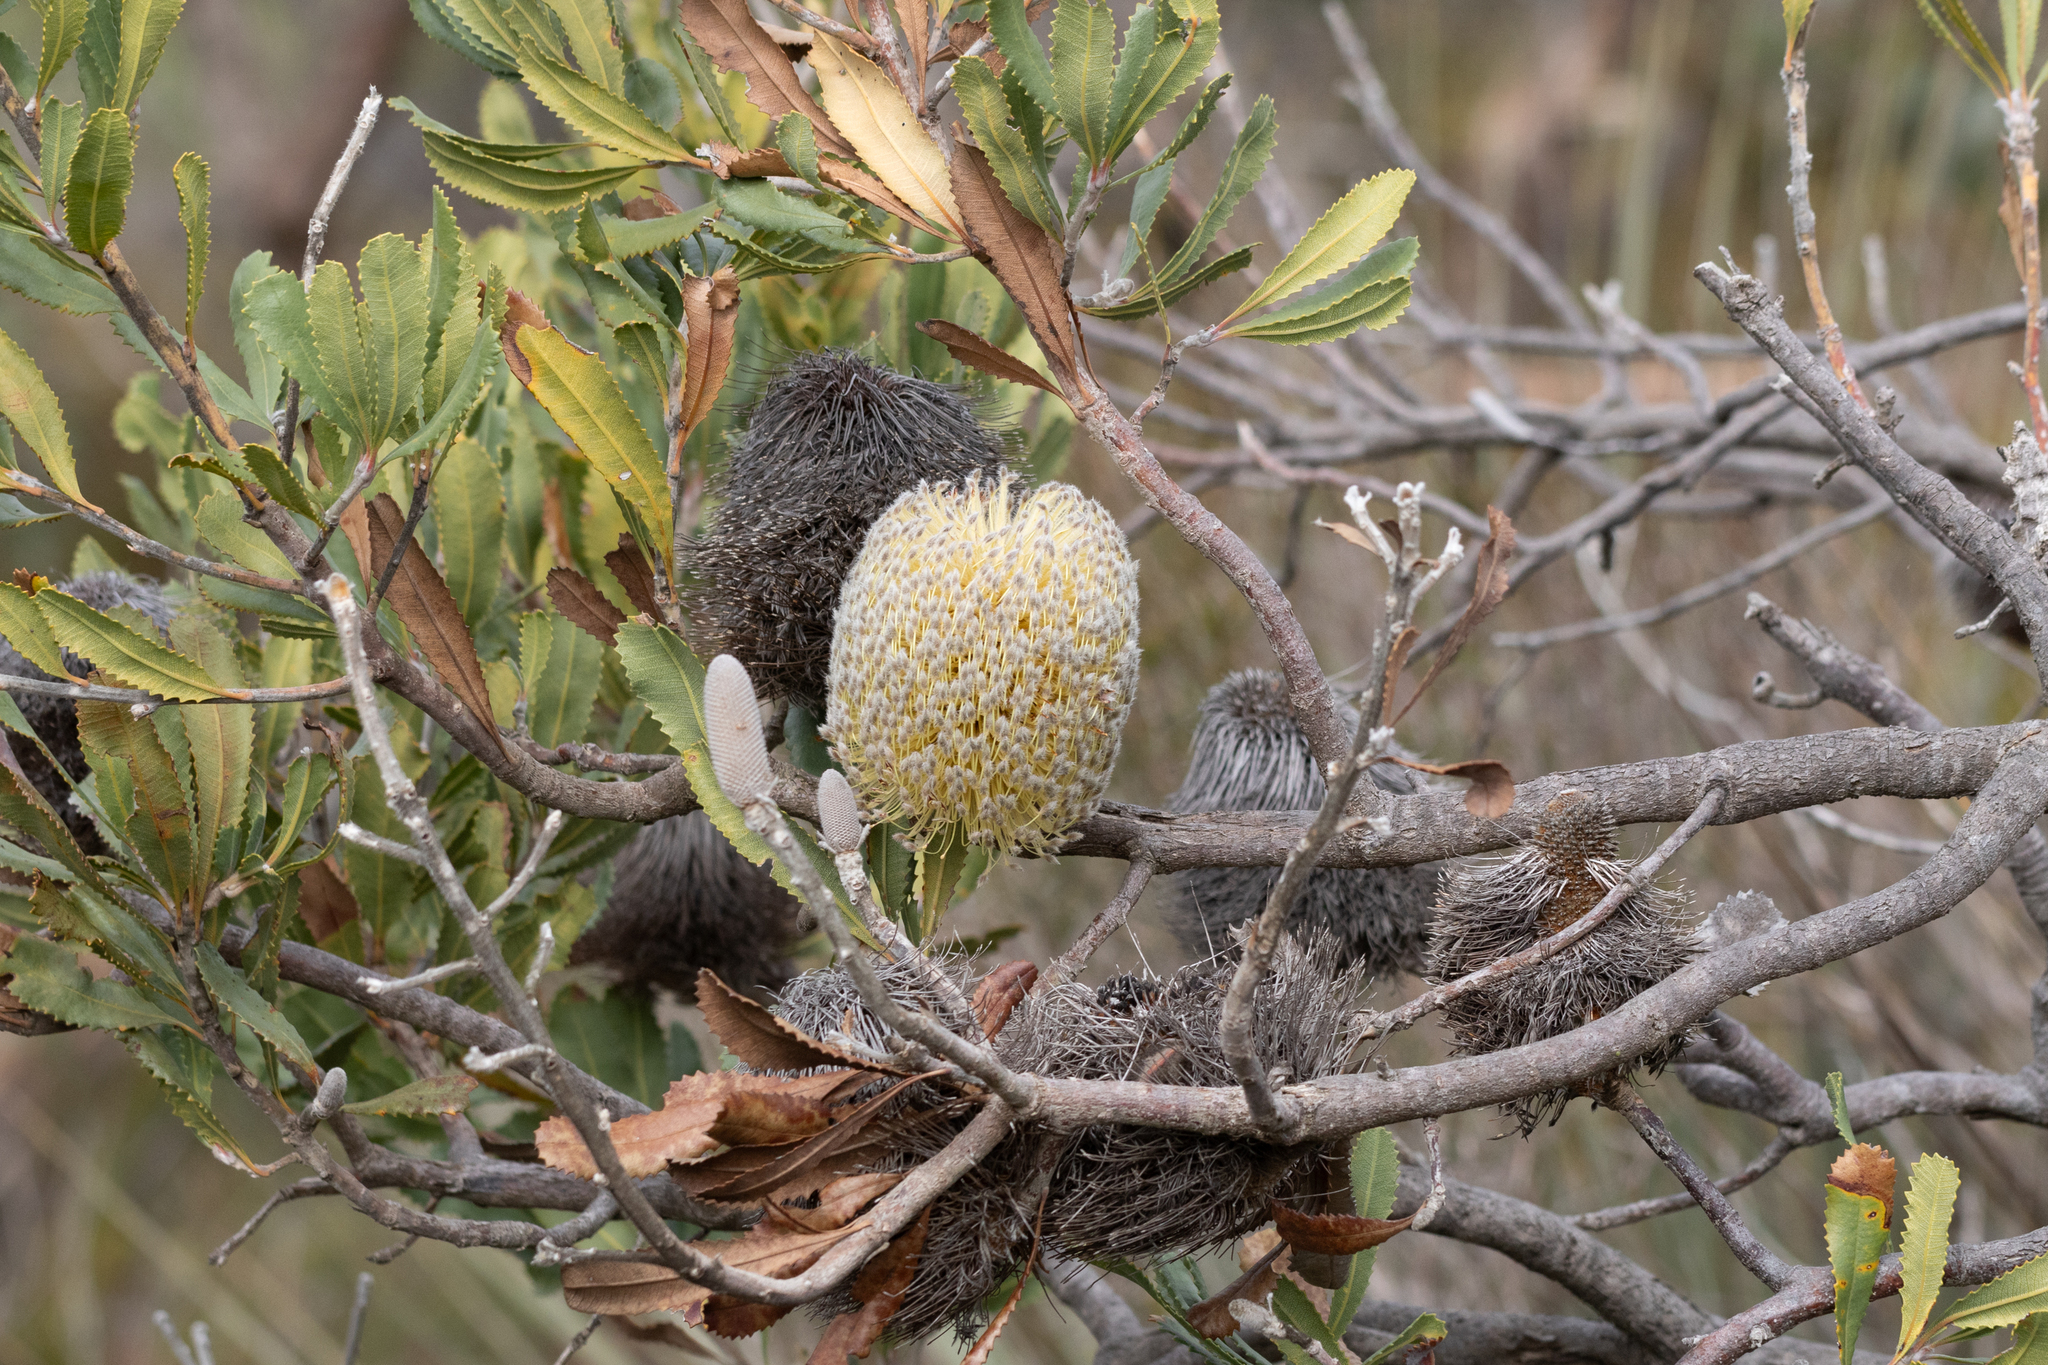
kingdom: Plantae
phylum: Tracheophyta
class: Magnoliopsida
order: Proteales
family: Proteaceae
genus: Banksia
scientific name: Banksia ornata
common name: Desert banksia
